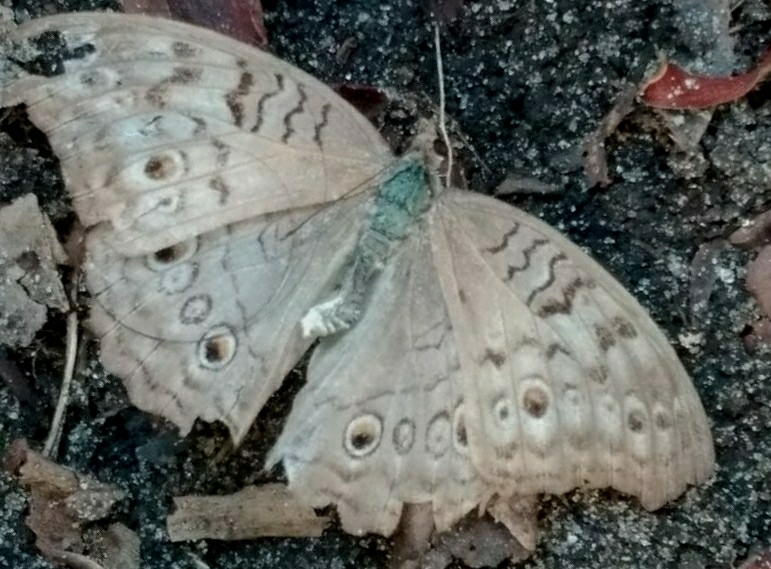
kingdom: Animalia
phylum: Arthropoda
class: Insecta
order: Lepidoptera
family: Nymphalidae
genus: Junonia
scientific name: Junonia atlites
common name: Grey pansy
